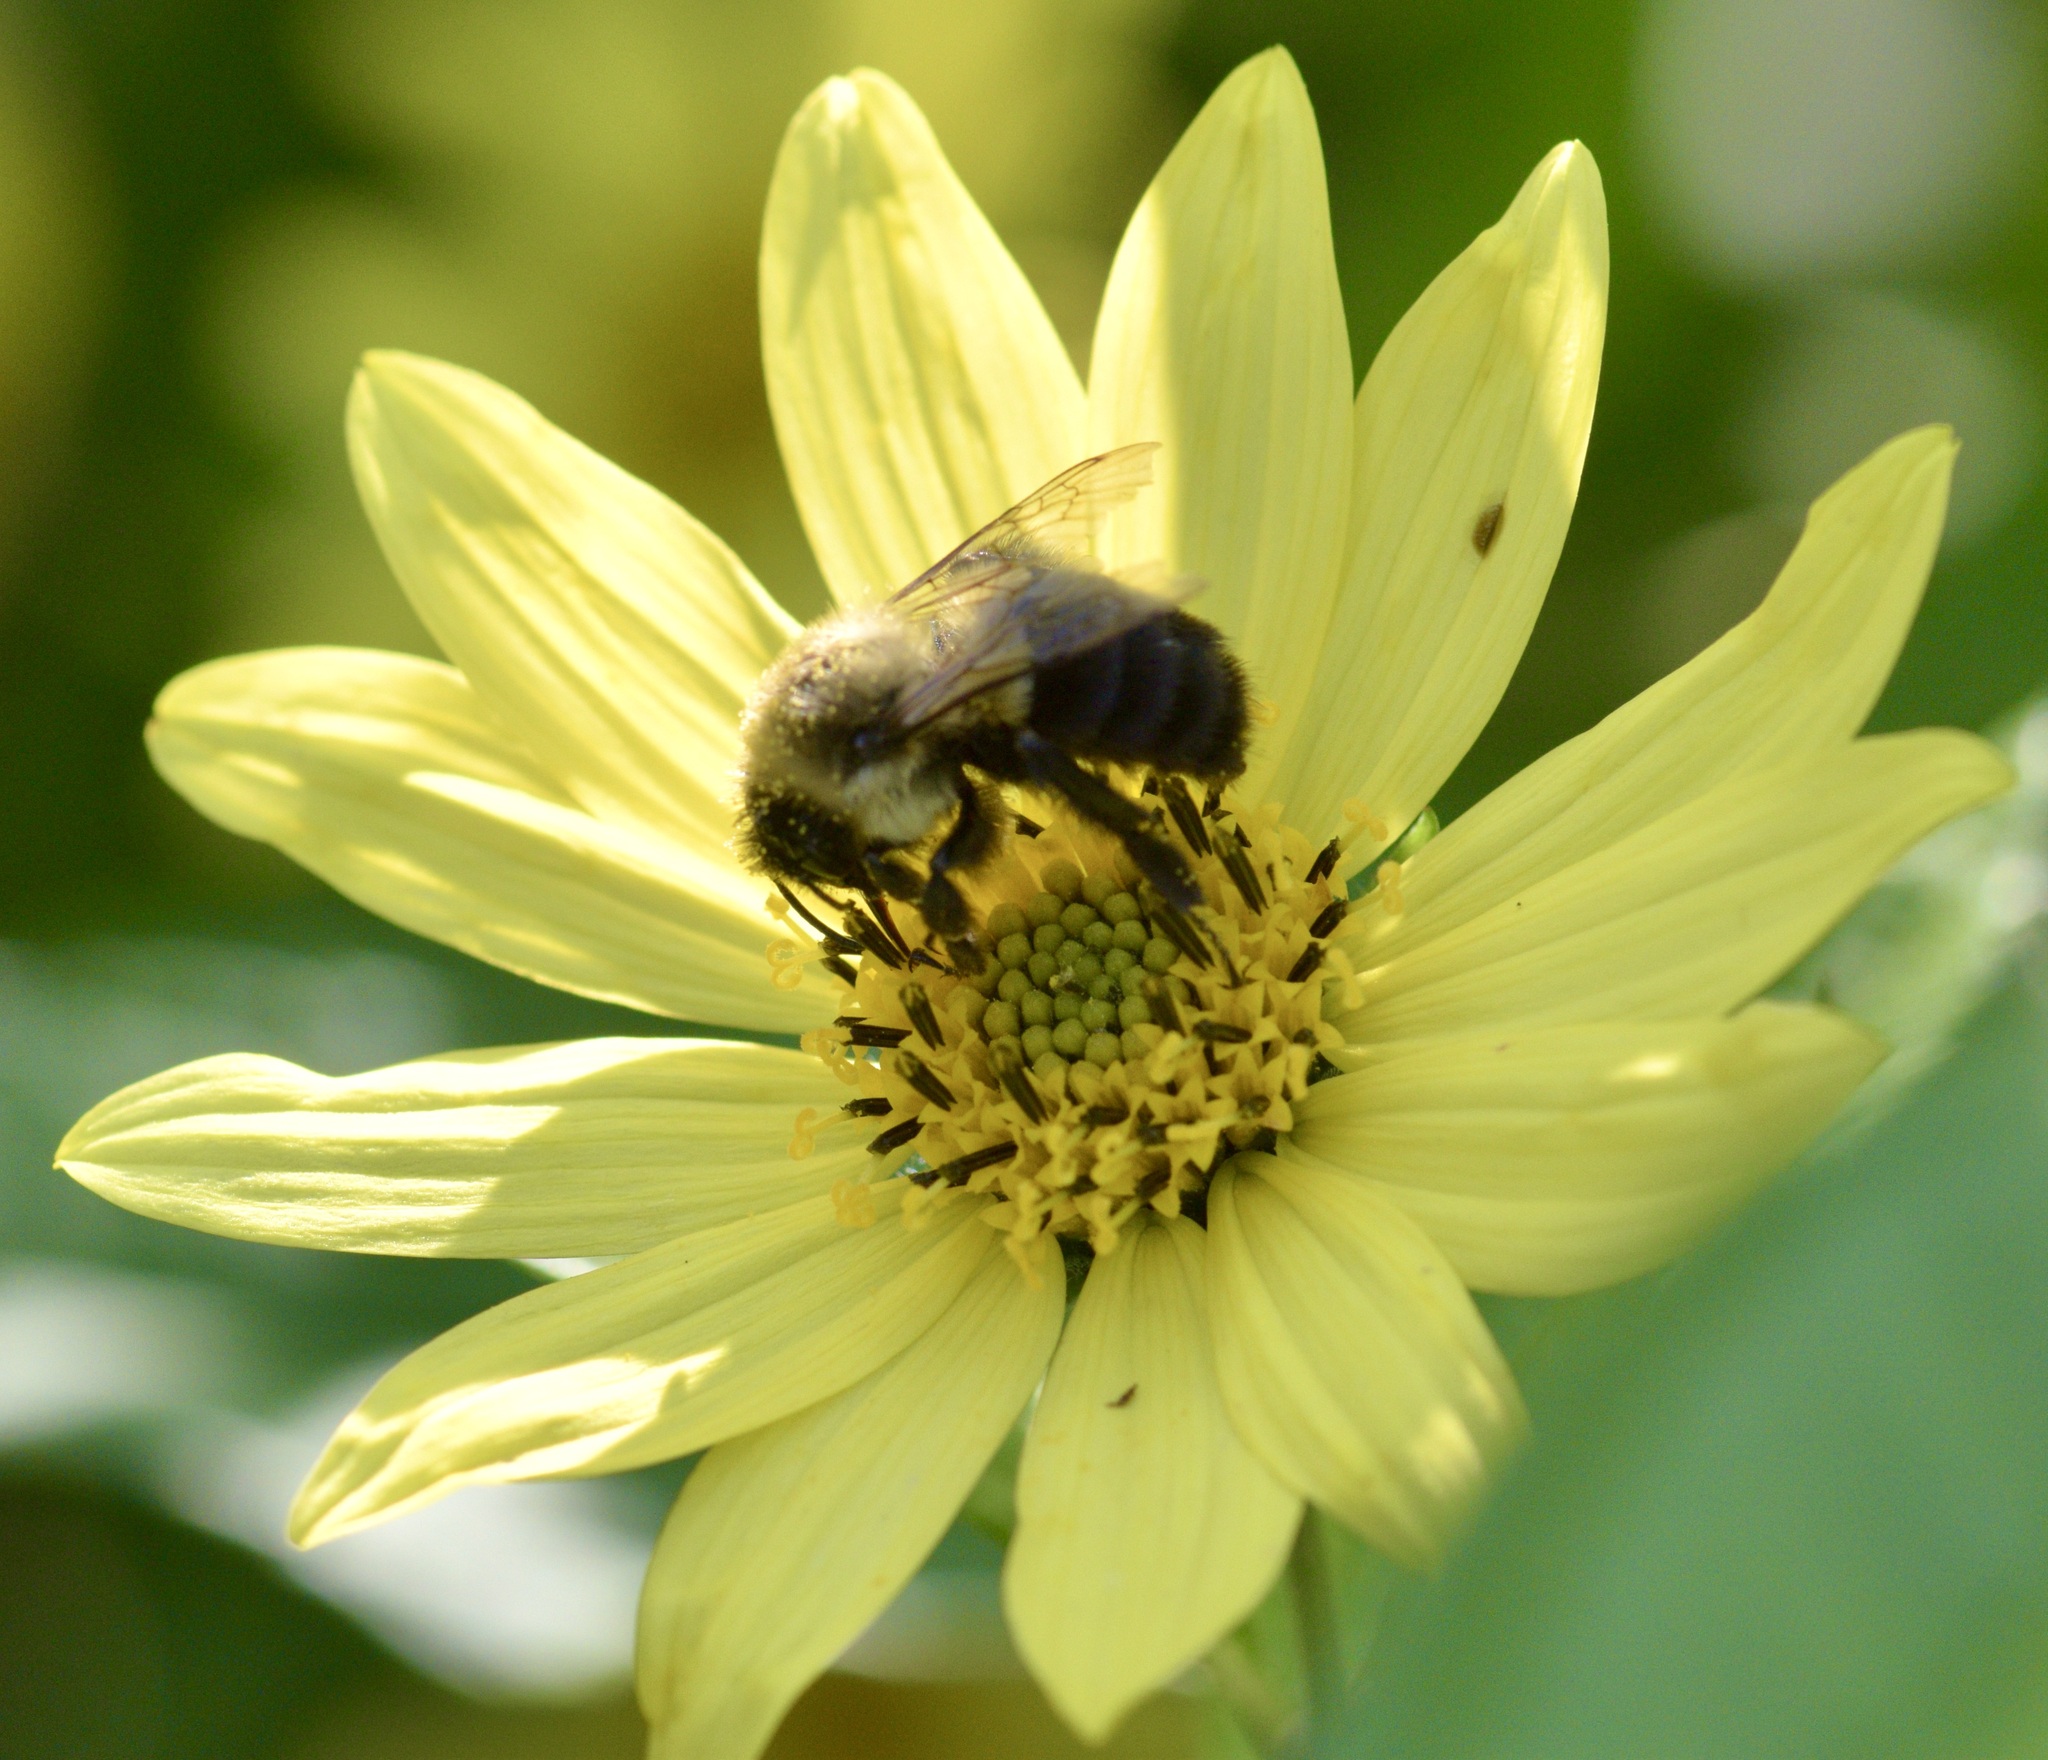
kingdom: Animalia
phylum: Arthropoda
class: Insecta
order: Hymenoptera
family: Apidae
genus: Bombus
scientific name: Bombus impatiens
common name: Common eastern bumble bee
